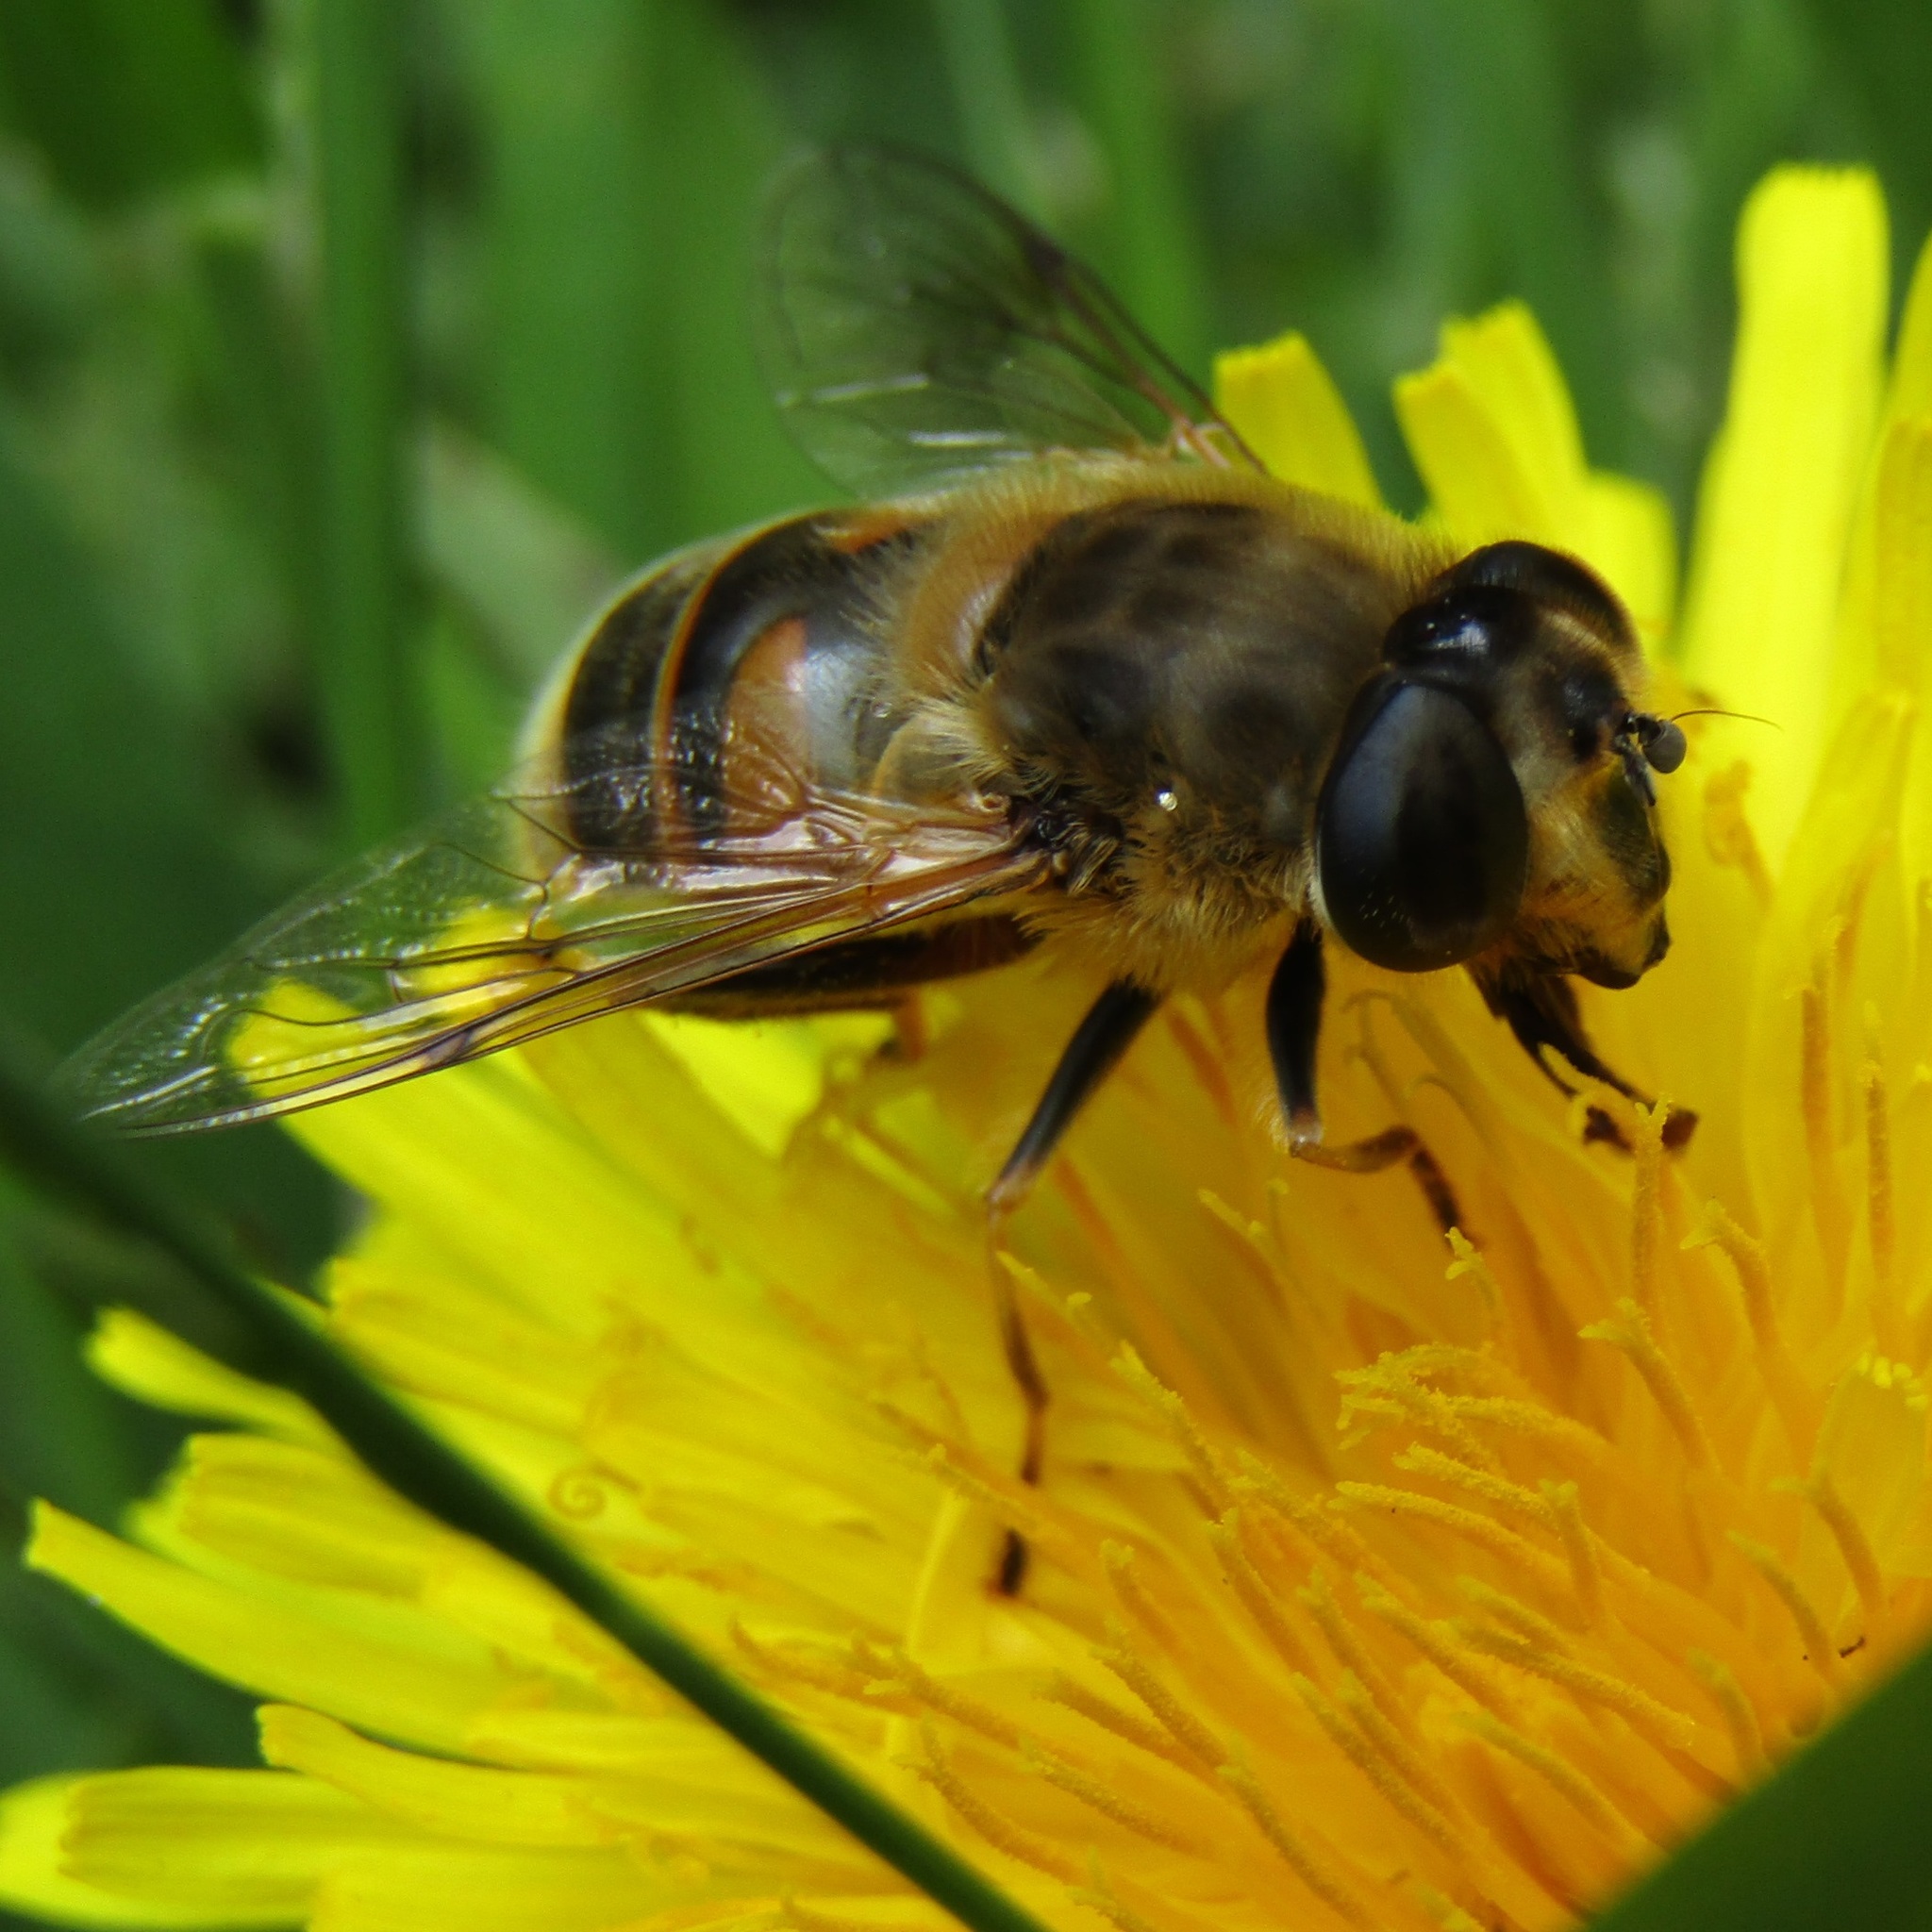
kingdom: Animalia
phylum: Arthropoda
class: Insecta
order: Diptera
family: Syrphidae
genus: Eristalis
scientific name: Eristalis tenax
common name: Drone fly
